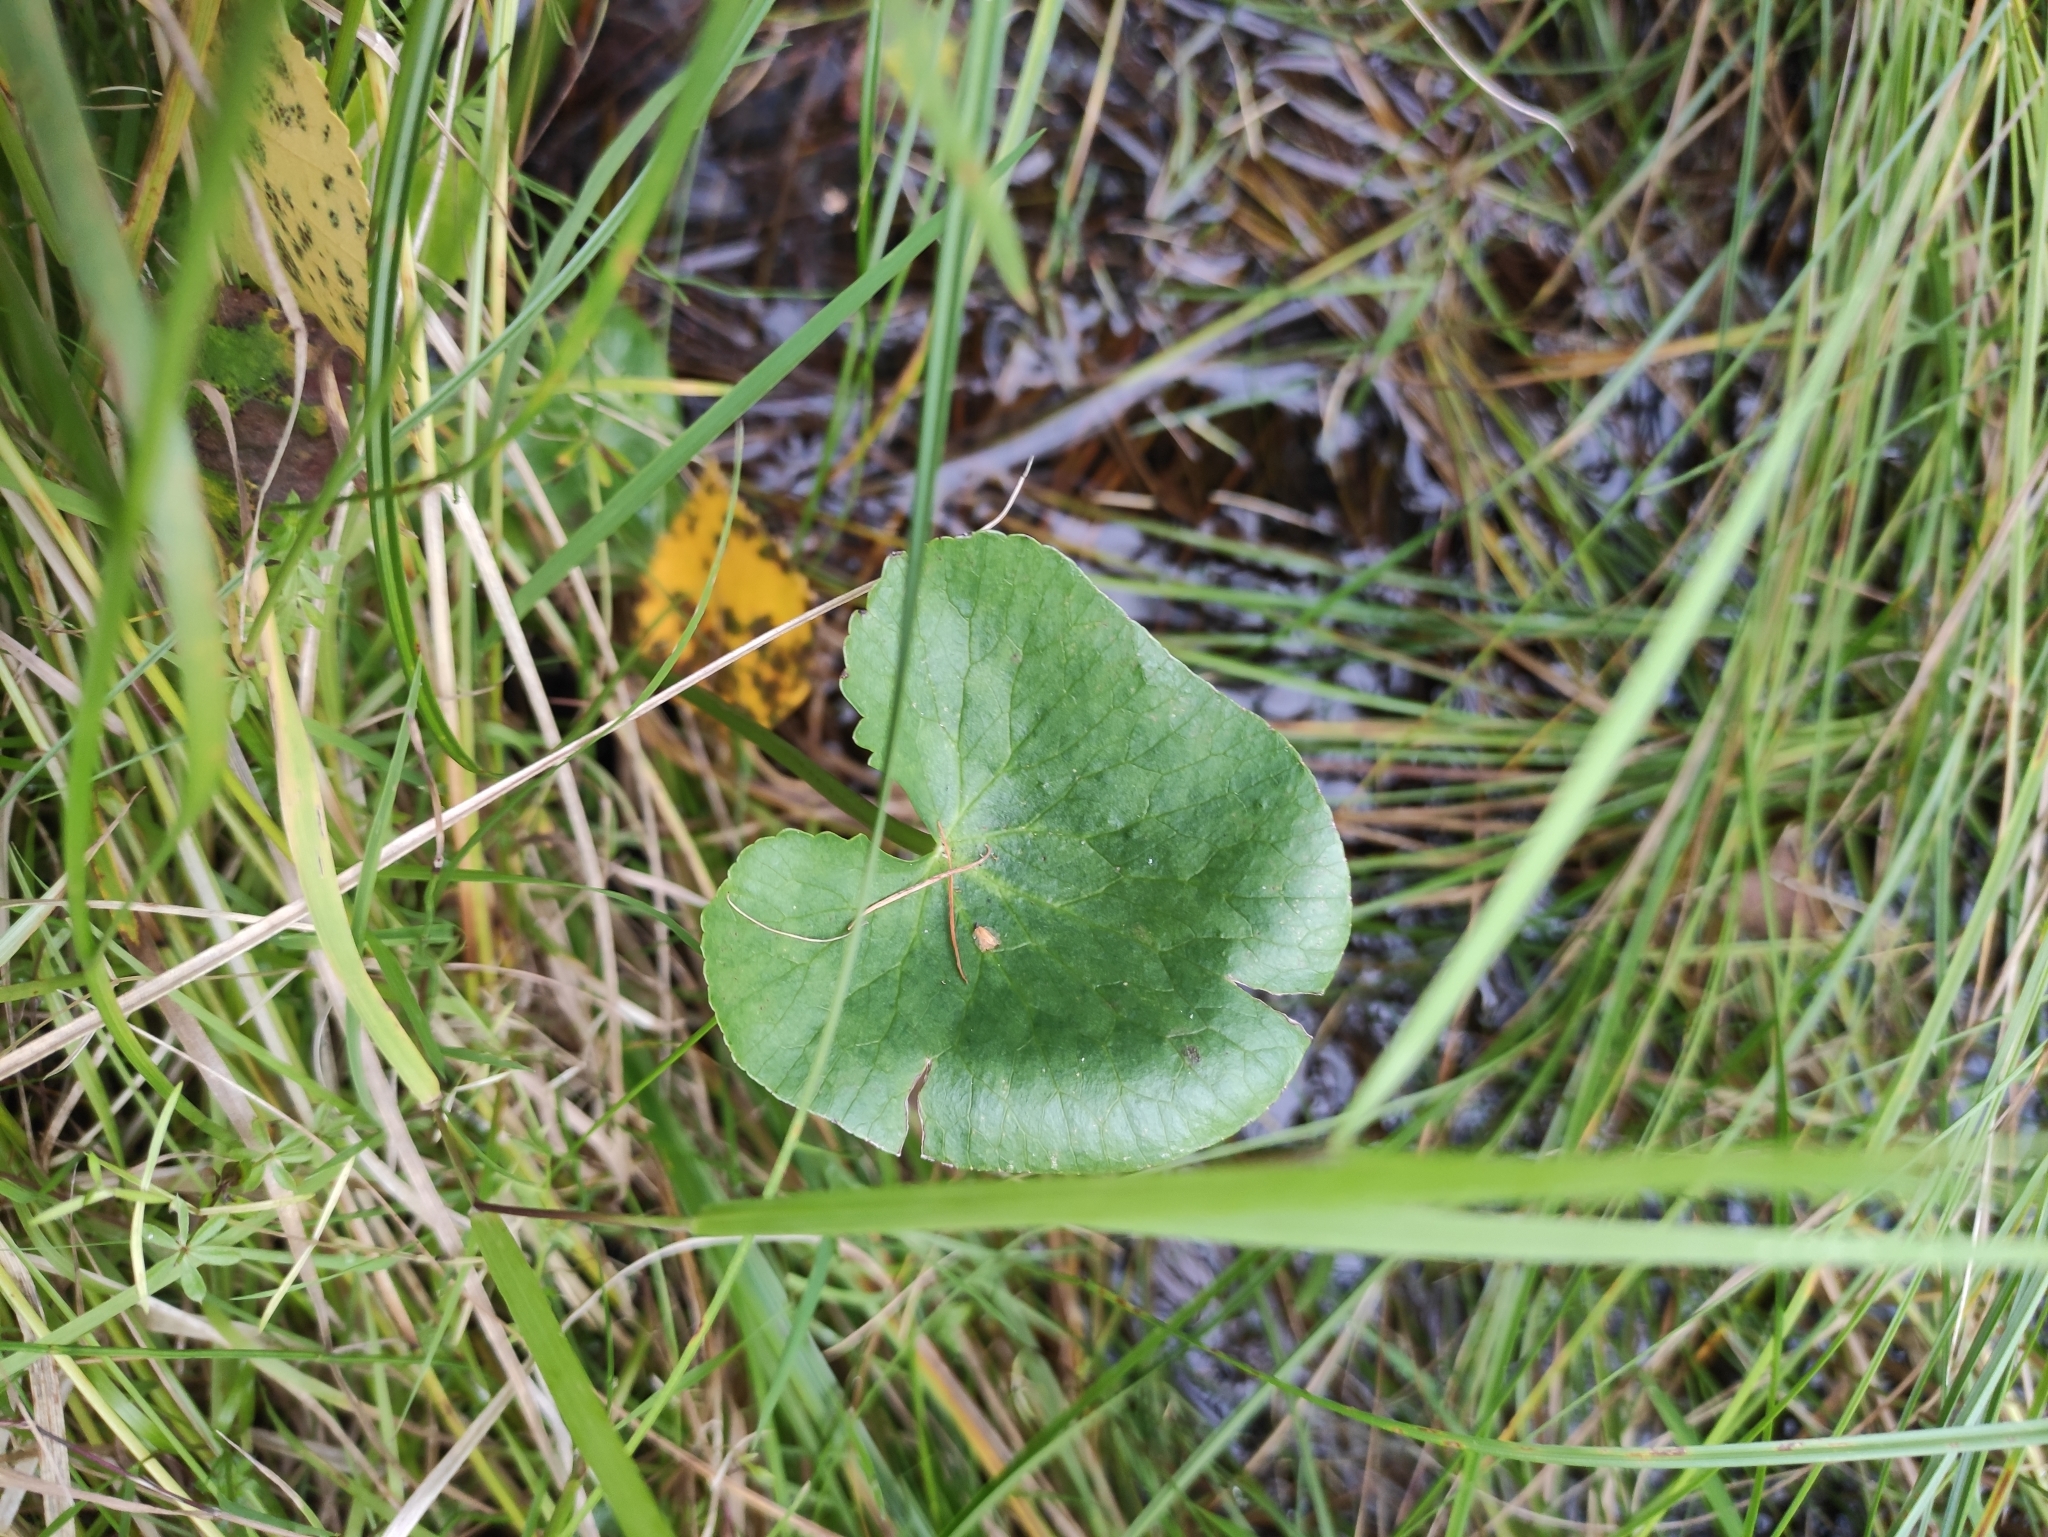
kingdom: Plantae
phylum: Tracheophyta
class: Magnoliopsida
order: Ranunculales
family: Ranunculaceae
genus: Caltha
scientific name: Caltha palustris
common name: Marsh marigold
